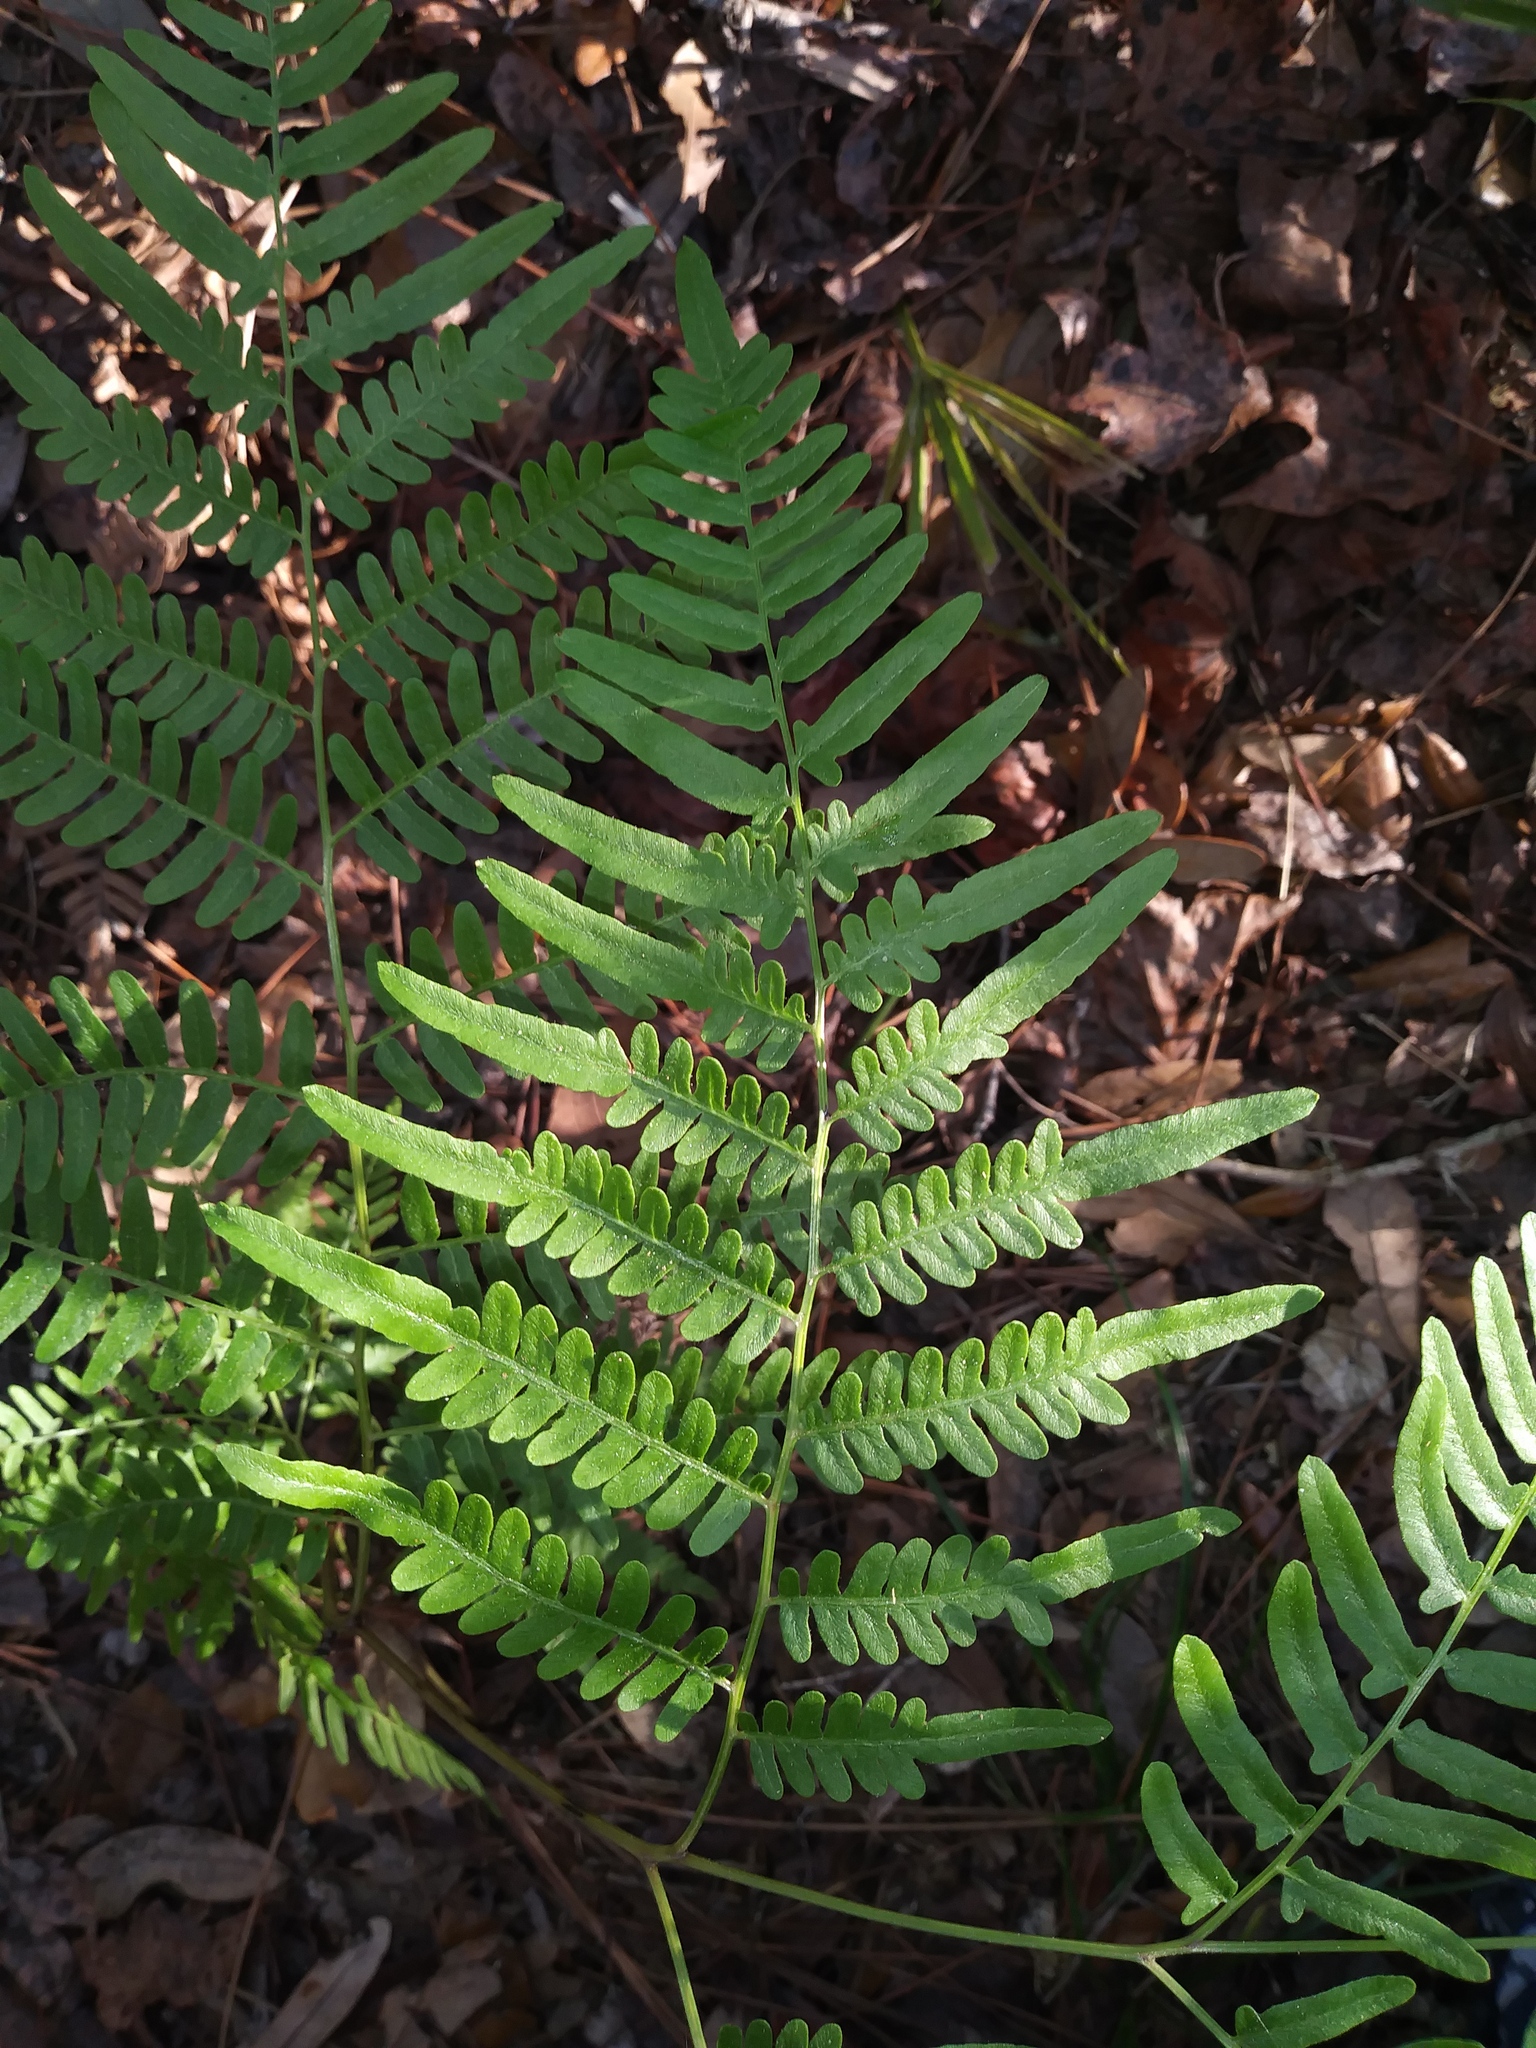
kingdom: Plantae
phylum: Tracheophyta
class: Polypodiopsida
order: Polypodiales
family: Dennstaedtiaceae
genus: Pteridium
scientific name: Pteridium aquilinum
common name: Bracken
